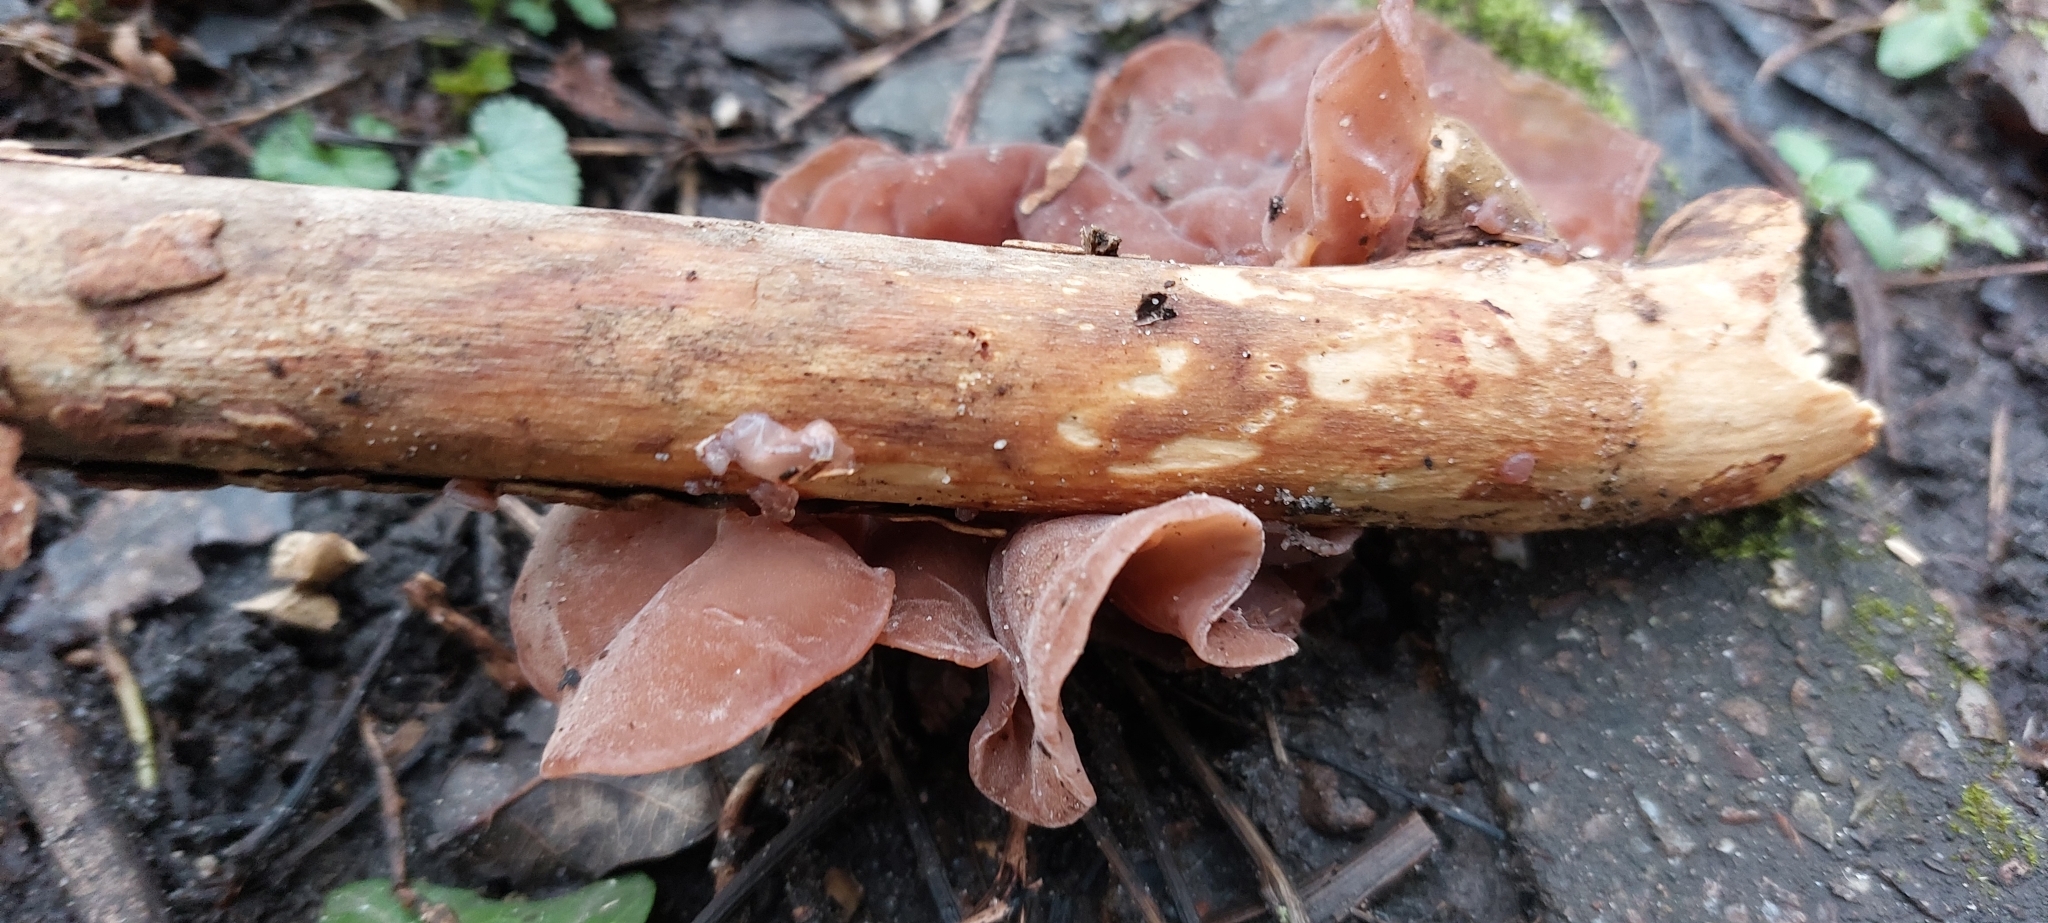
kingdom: Fungi
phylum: Basidiomycota
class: Agaricomycetes
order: Auriculariales
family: Auriculariaceae
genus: Auricularia
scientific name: Auricularia auricula-judae
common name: Jelly ear
